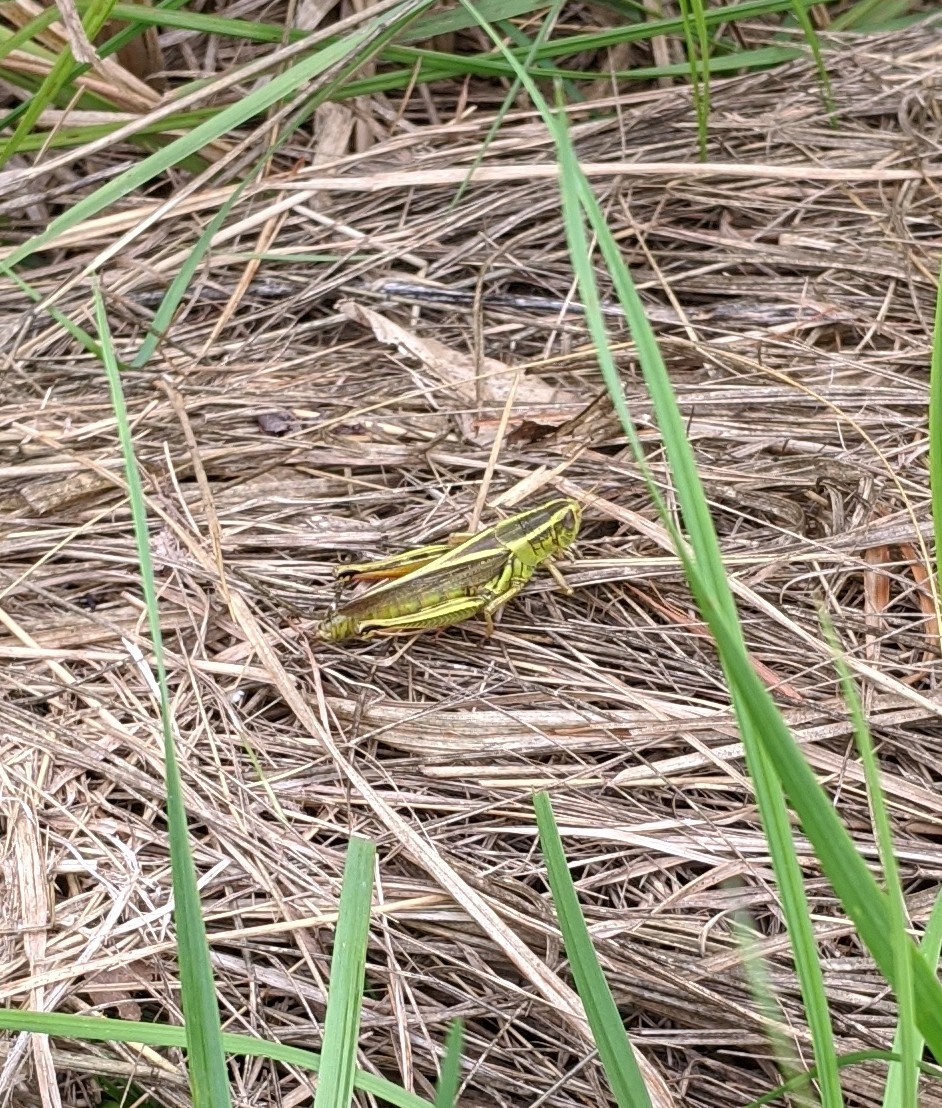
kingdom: Animalia
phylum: Arthropoda
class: Insecta
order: Orthoptera
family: Acrididae
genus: Melanoplus
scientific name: Melanoplus bivittatus
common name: Two-striped grasshopper
